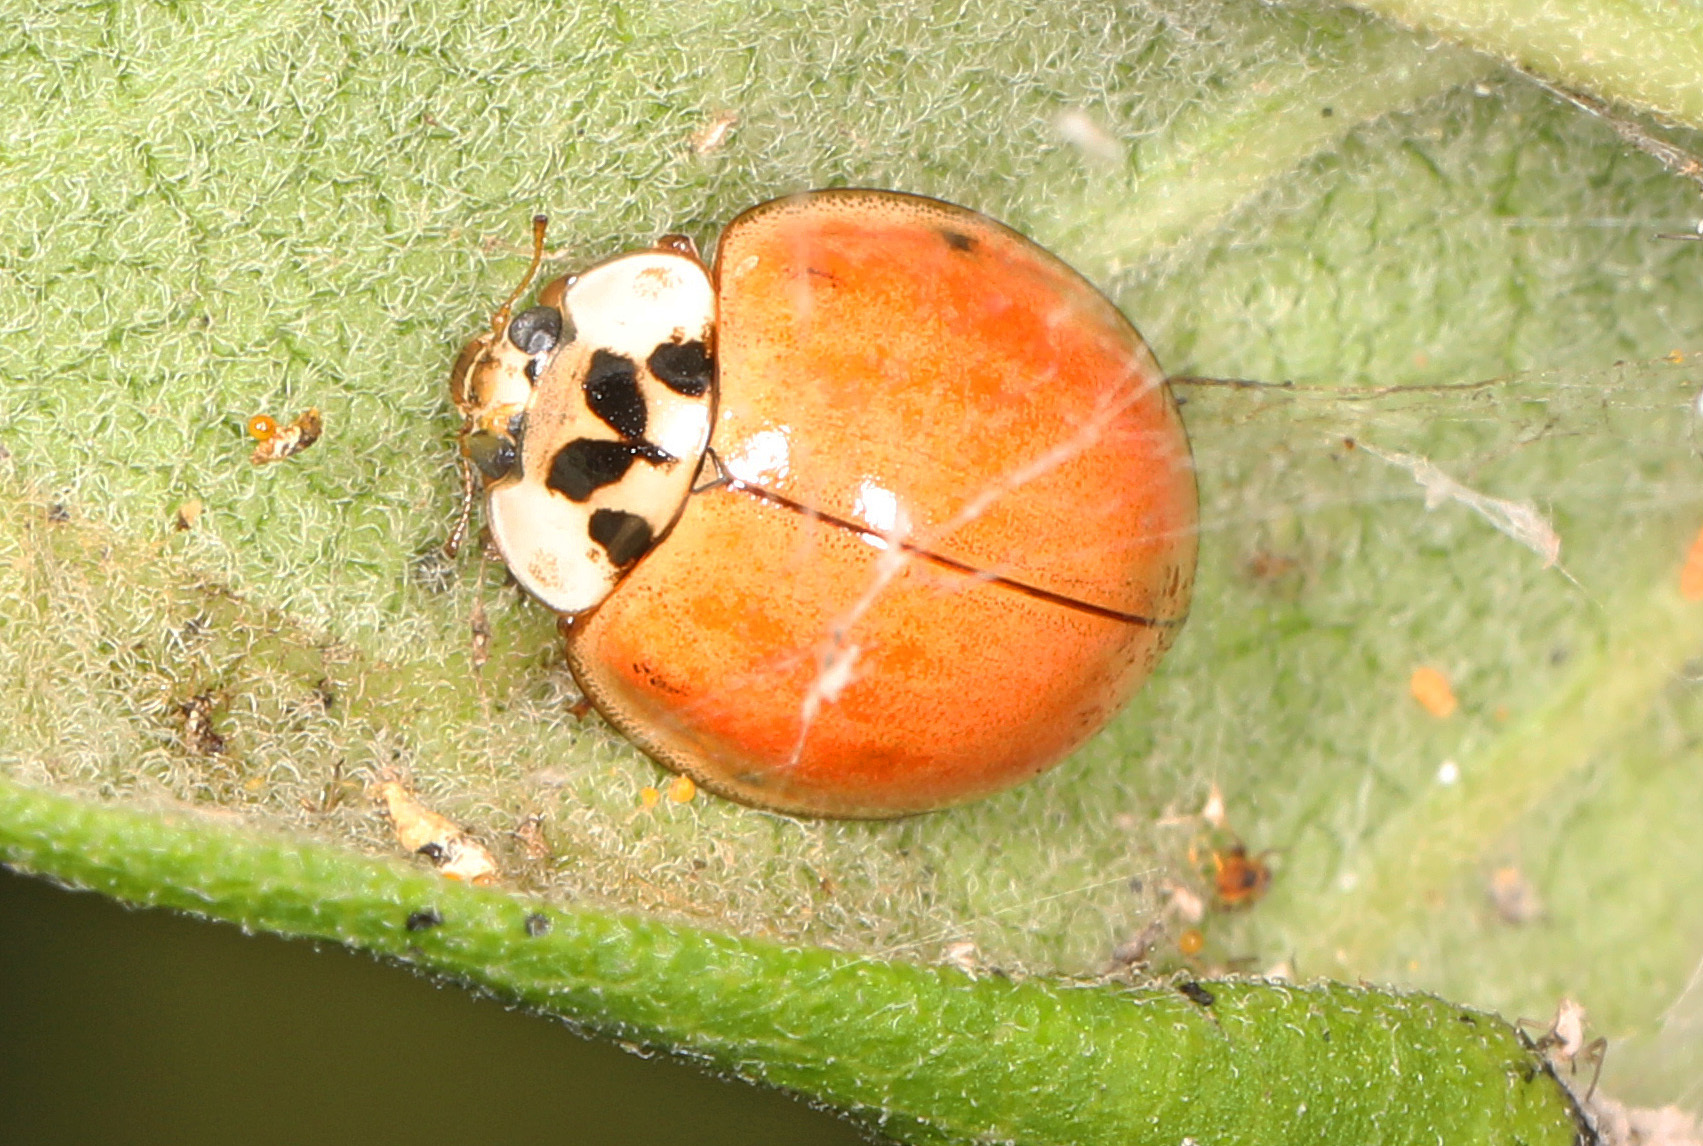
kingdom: Animalia
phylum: Arthropoda
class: Insecta
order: Coleoptera
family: Coccinellidae
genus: Harmonia
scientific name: Harmonia axyridis
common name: Harlequin ladybird
